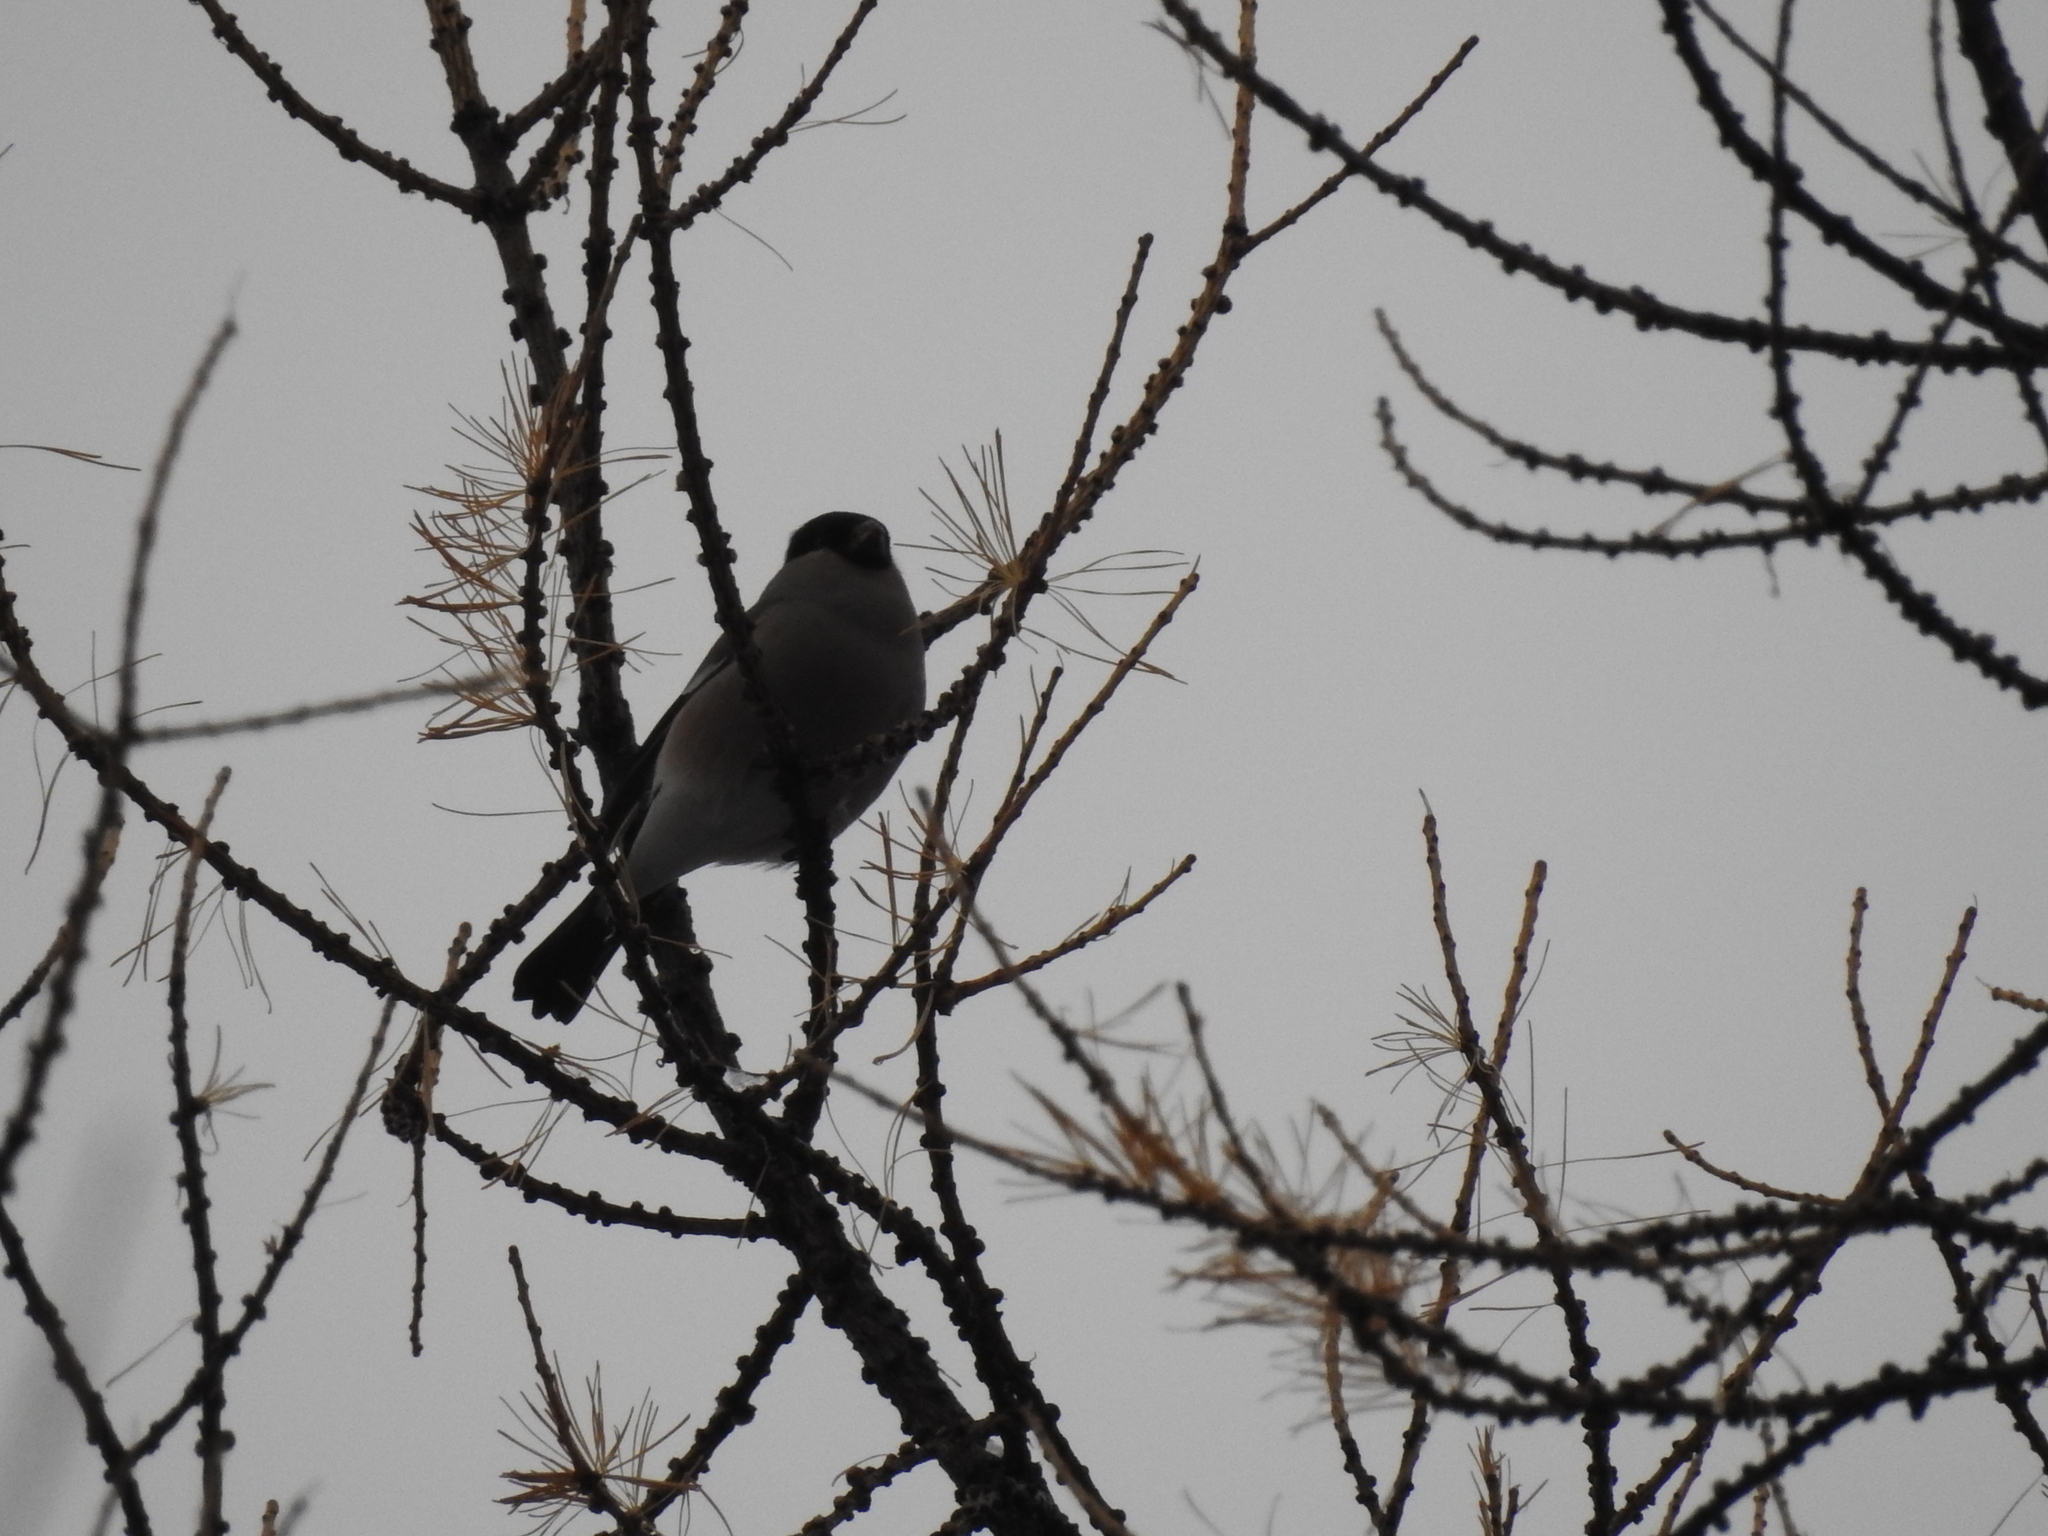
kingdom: Animalia
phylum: Chordata
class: Aves
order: Passeriformes
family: Fringillidae
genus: Pyrrhula
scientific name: Pyrrhula pyrrhula
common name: Eurasian bullfinch
